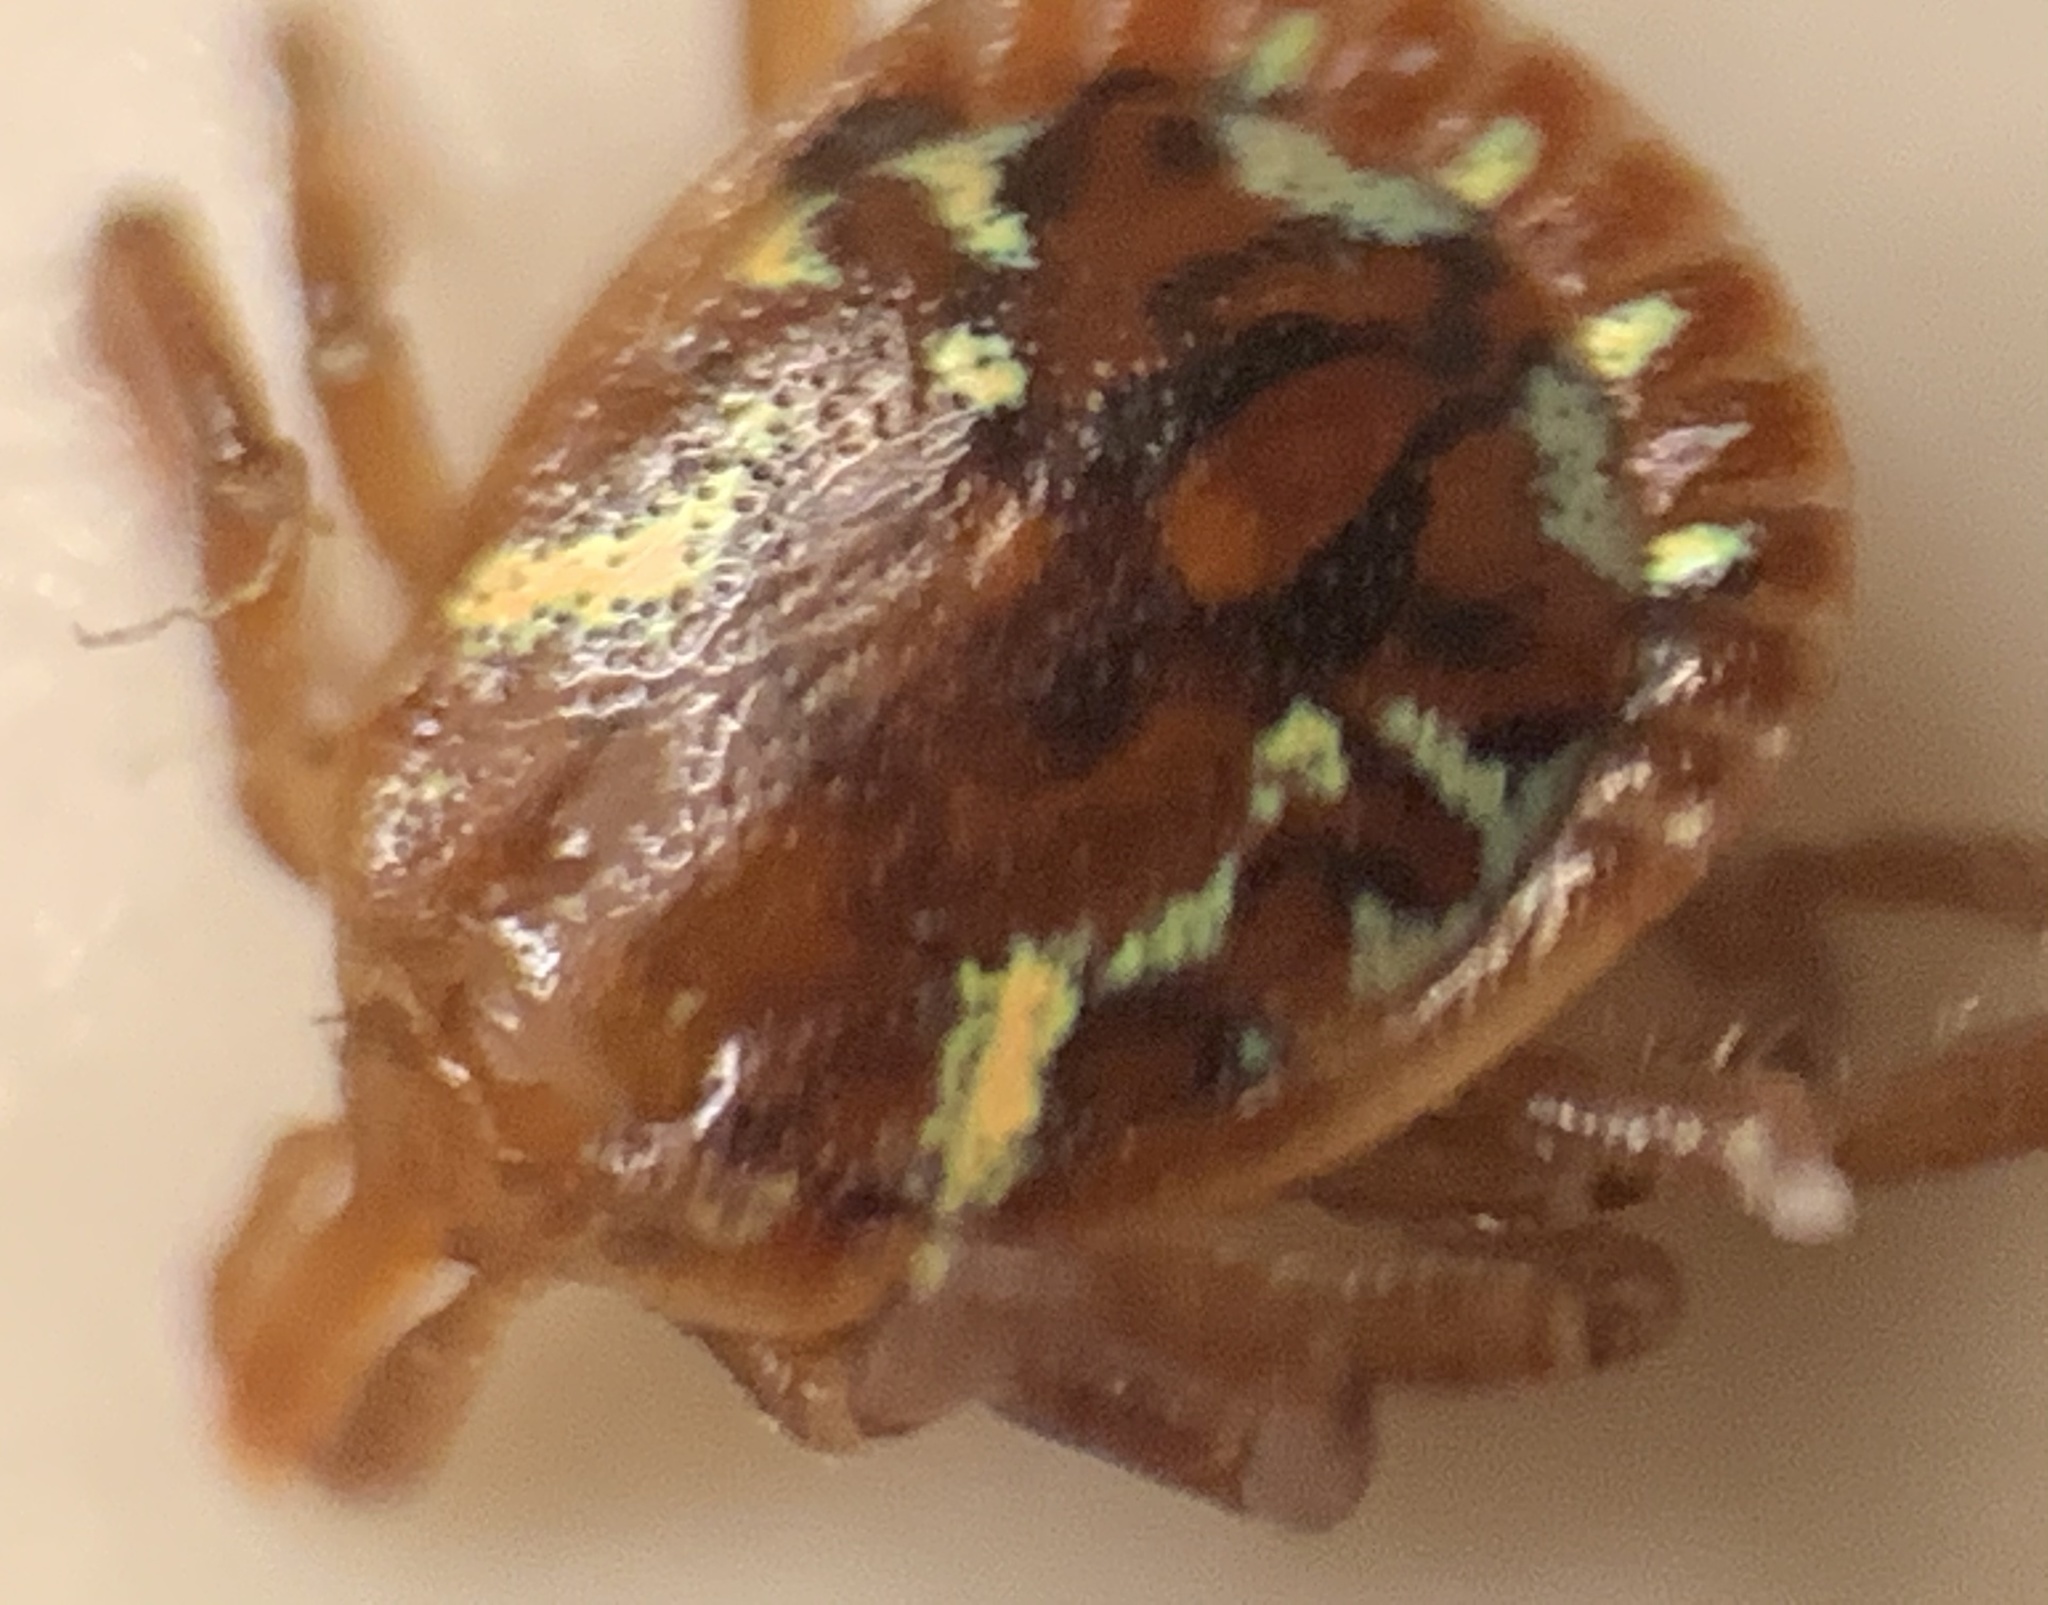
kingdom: Animalia
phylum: Arthropoda
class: Arachnida
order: Ixodida
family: Ixodidae
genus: Amblyomma
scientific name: Amblyomma americanum
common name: Lone star tick
